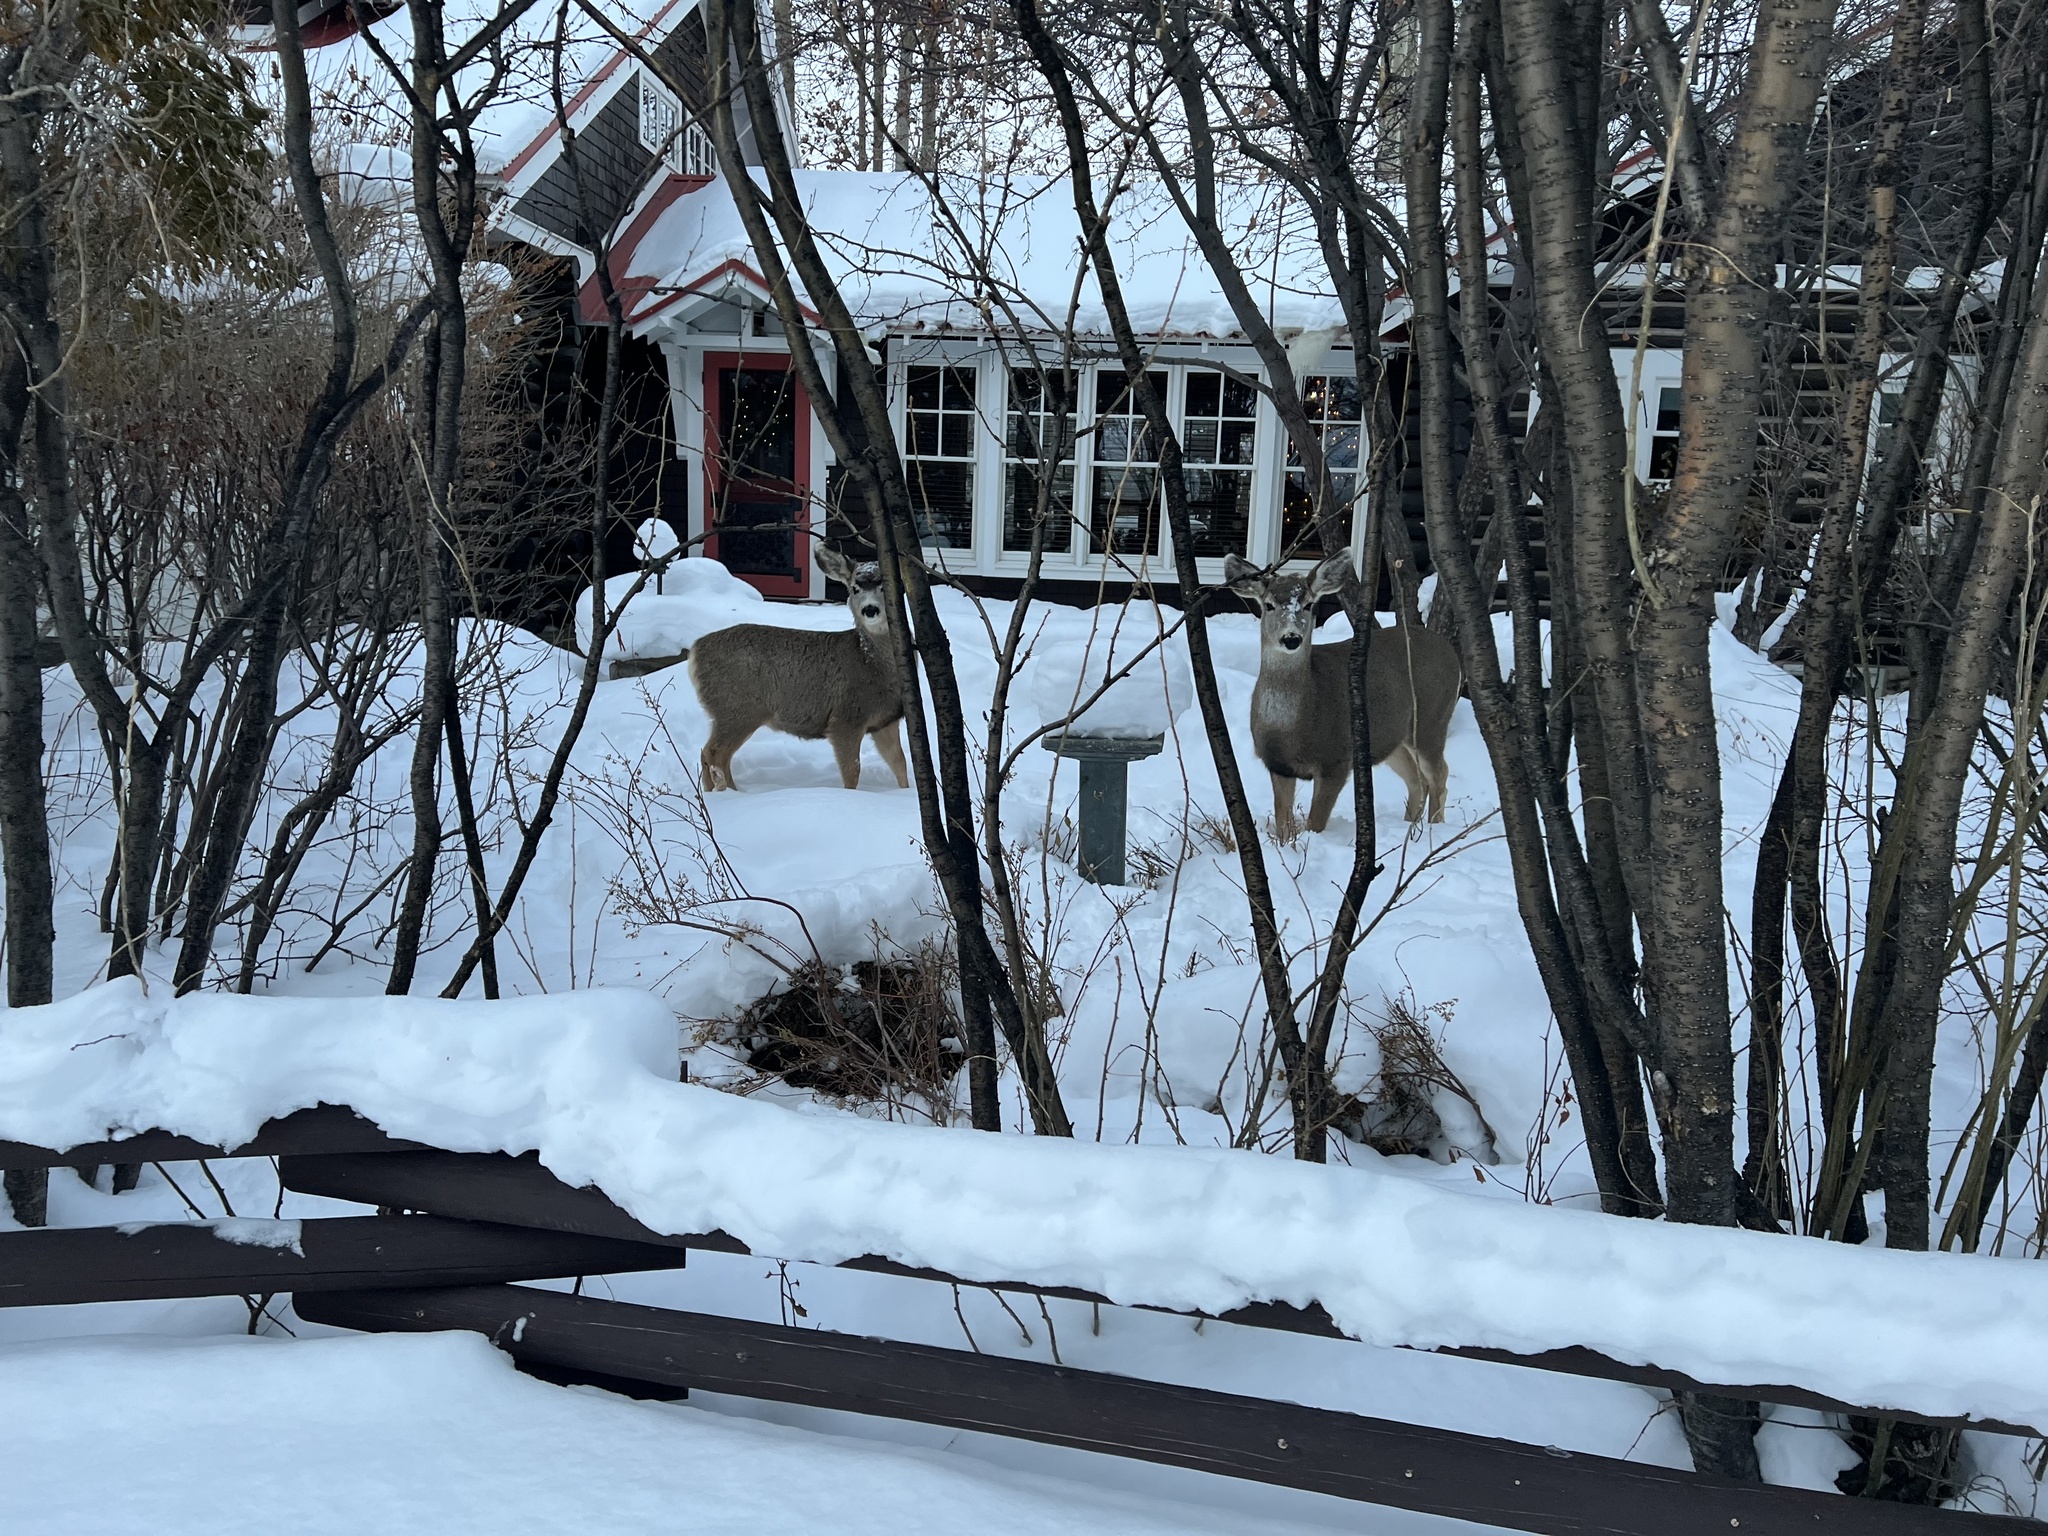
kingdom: Animalia
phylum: Chordata
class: Mammalia
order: Artiodactyla
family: Cervidae
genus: Odocoileus
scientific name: Odocoileus hemionus
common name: Mule deer
